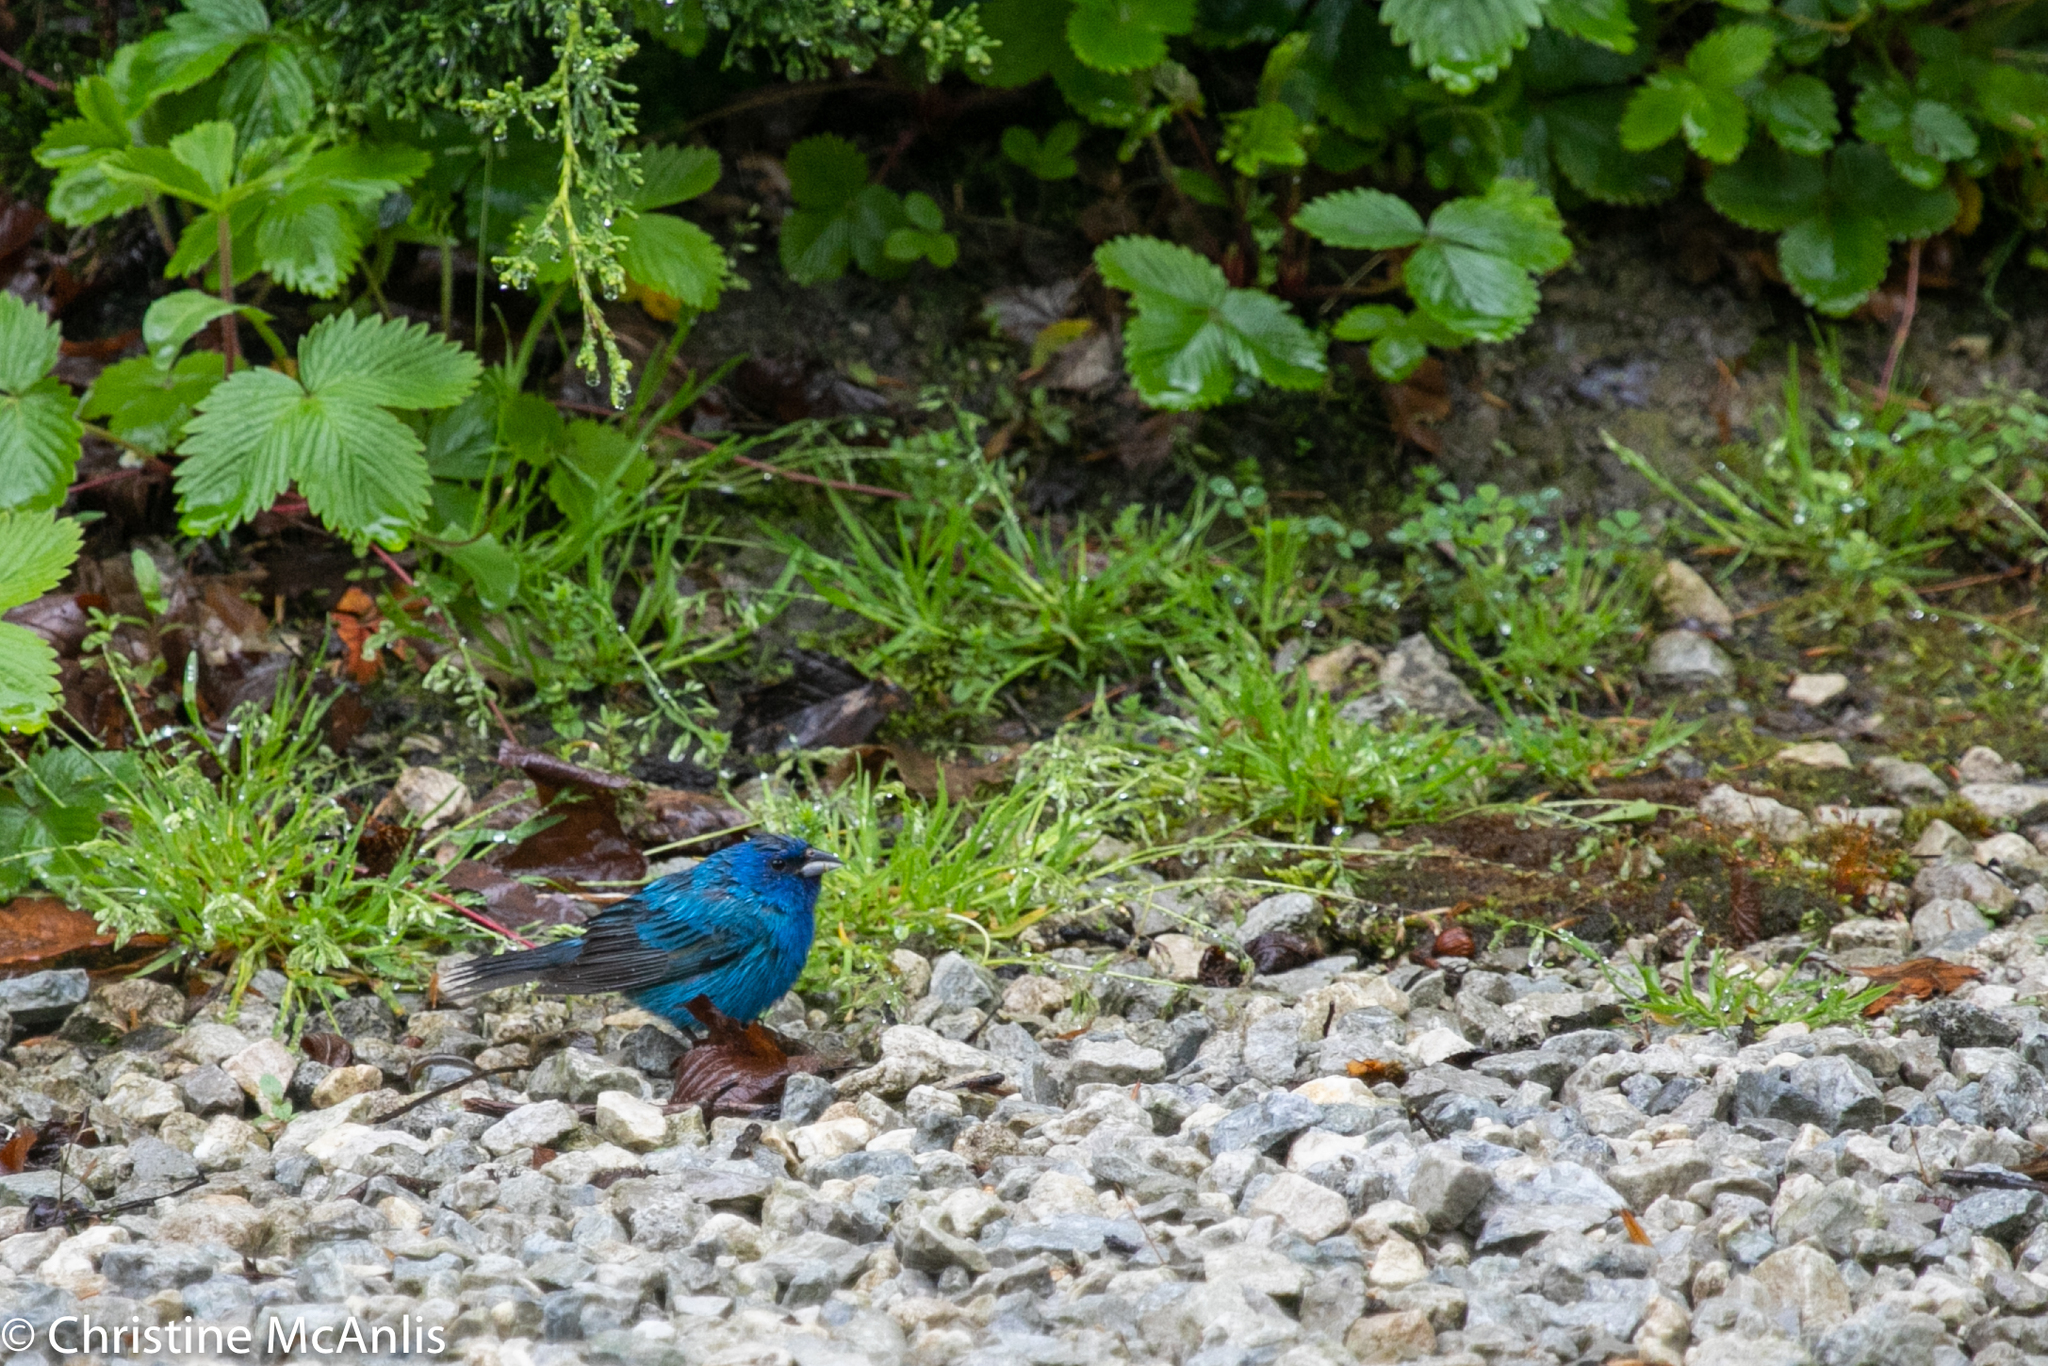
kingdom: Animalia
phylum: Chordata
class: Aves
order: Passeriformes
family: Cardinalidae
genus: Passerina
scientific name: Passerina cyanea
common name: Indigo bunting
